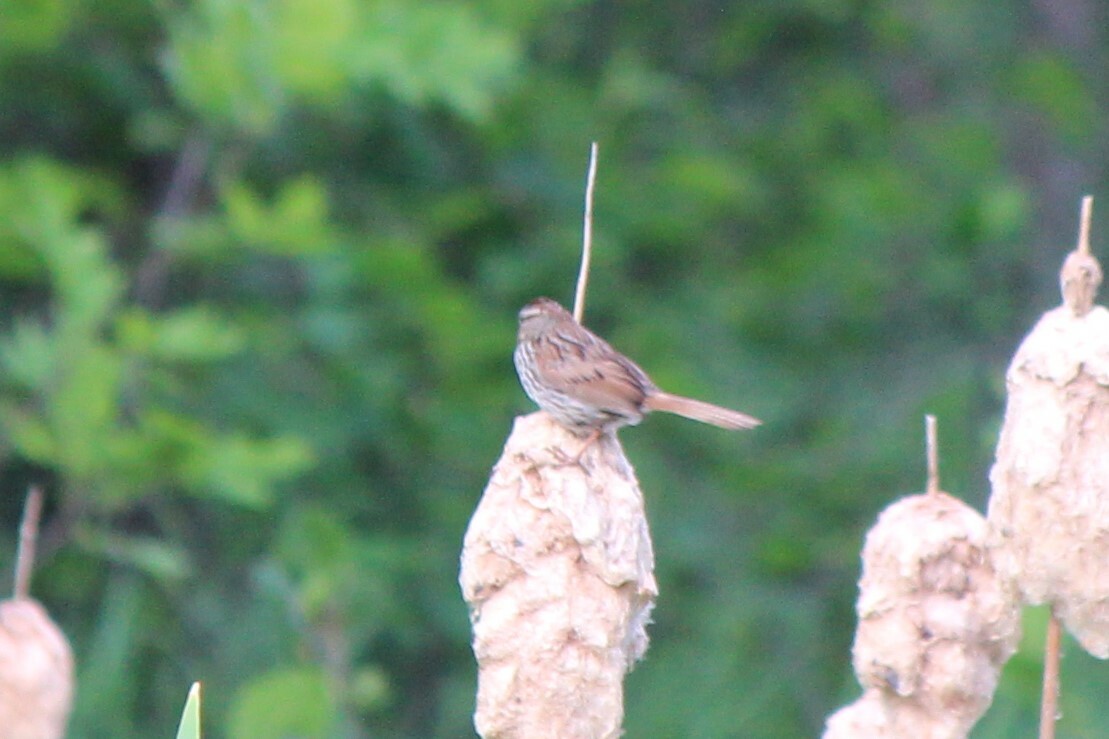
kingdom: Animalia
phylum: Chordata
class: Aves
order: Passeriformes
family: Passerellidae
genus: Melospiza
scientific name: Melospiza melodia
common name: Song sparrow
